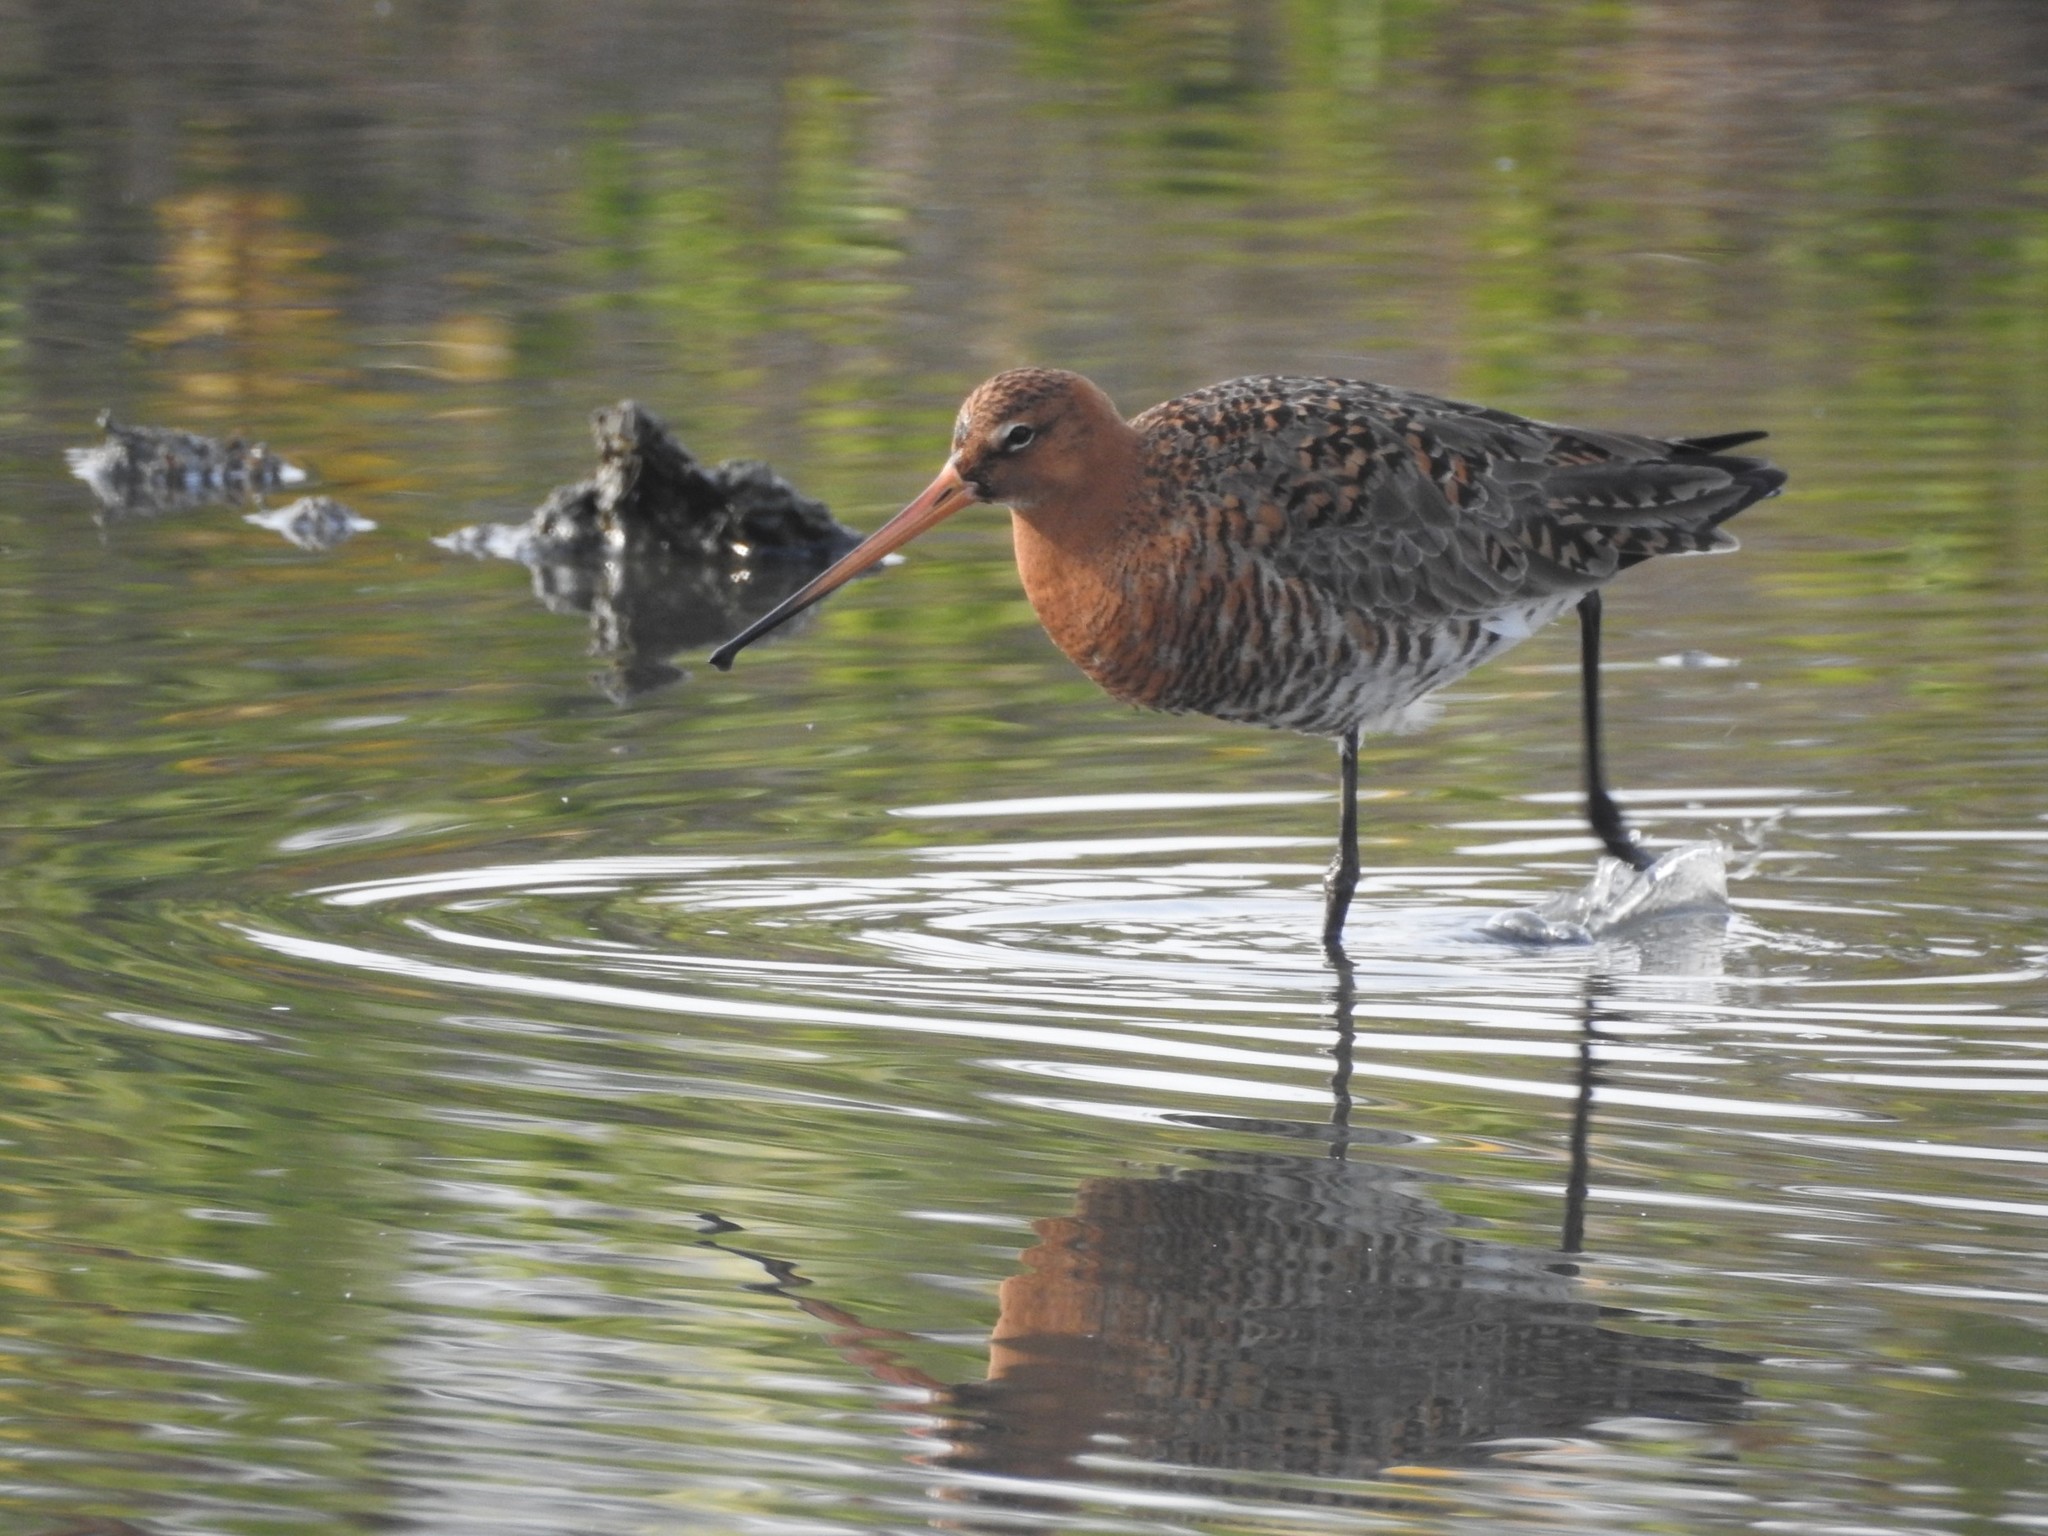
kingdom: Animalia
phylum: Chordata
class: Aves
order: Charadriiformes
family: Scolopacidae
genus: Limosa
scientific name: Limosa limosa
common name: Black-tailed godwit
